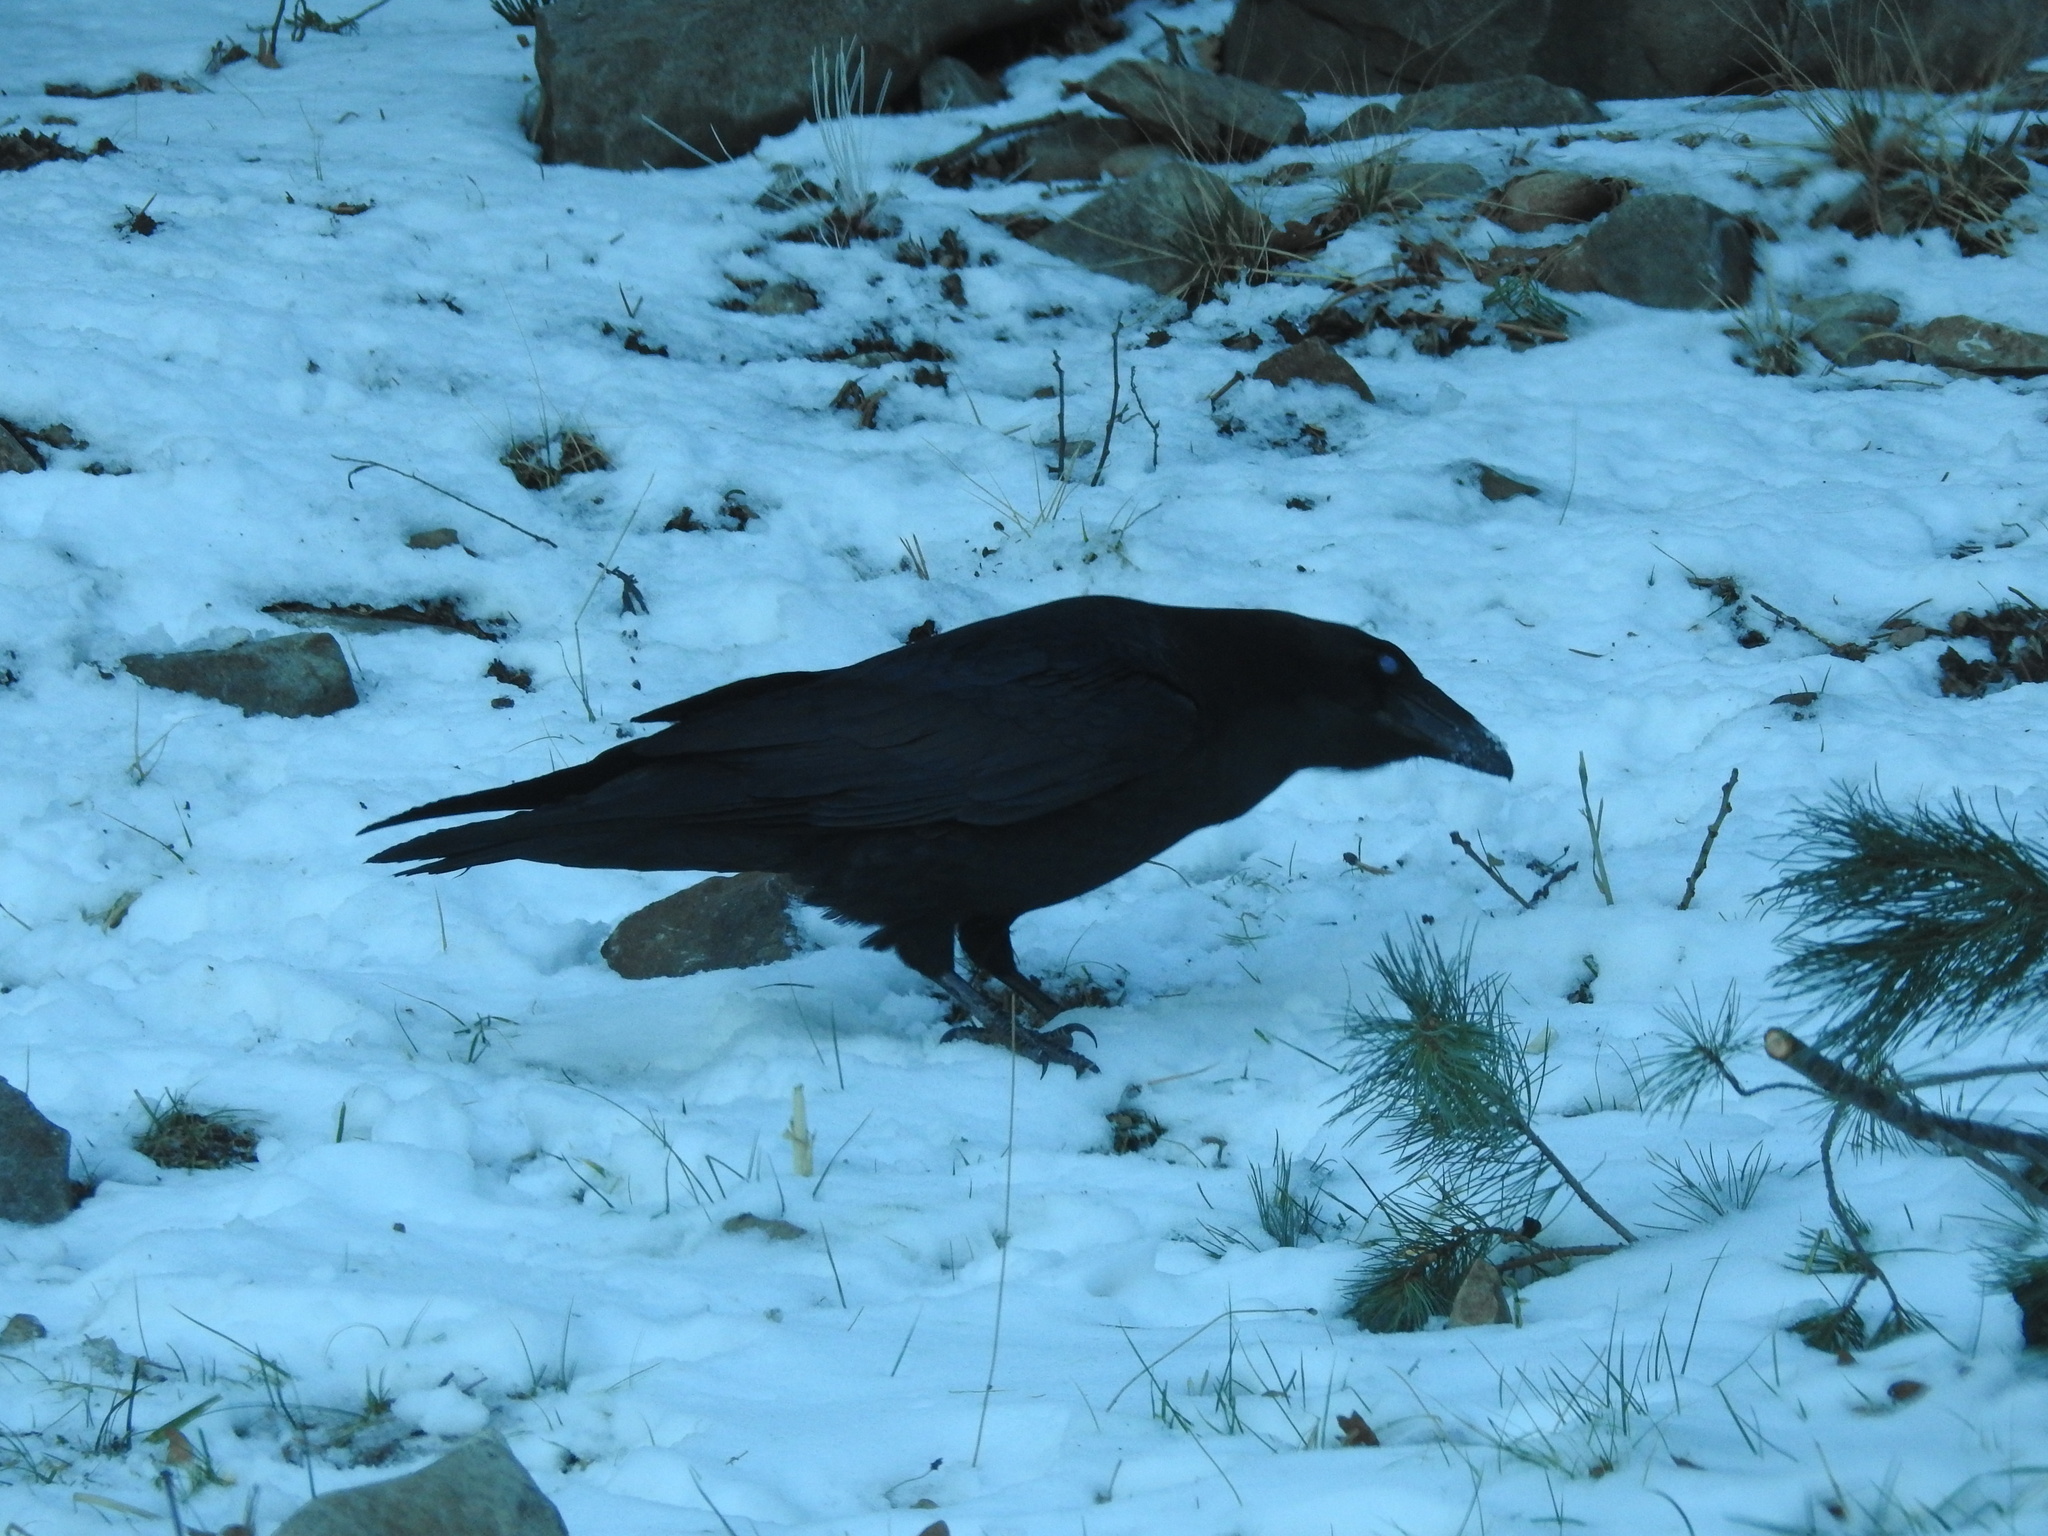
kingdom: Animalia
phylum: Chordata
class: Aves
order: Passeriformes
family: Corvidae
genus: Corvus
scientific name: Corvus corax
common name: Common raven
